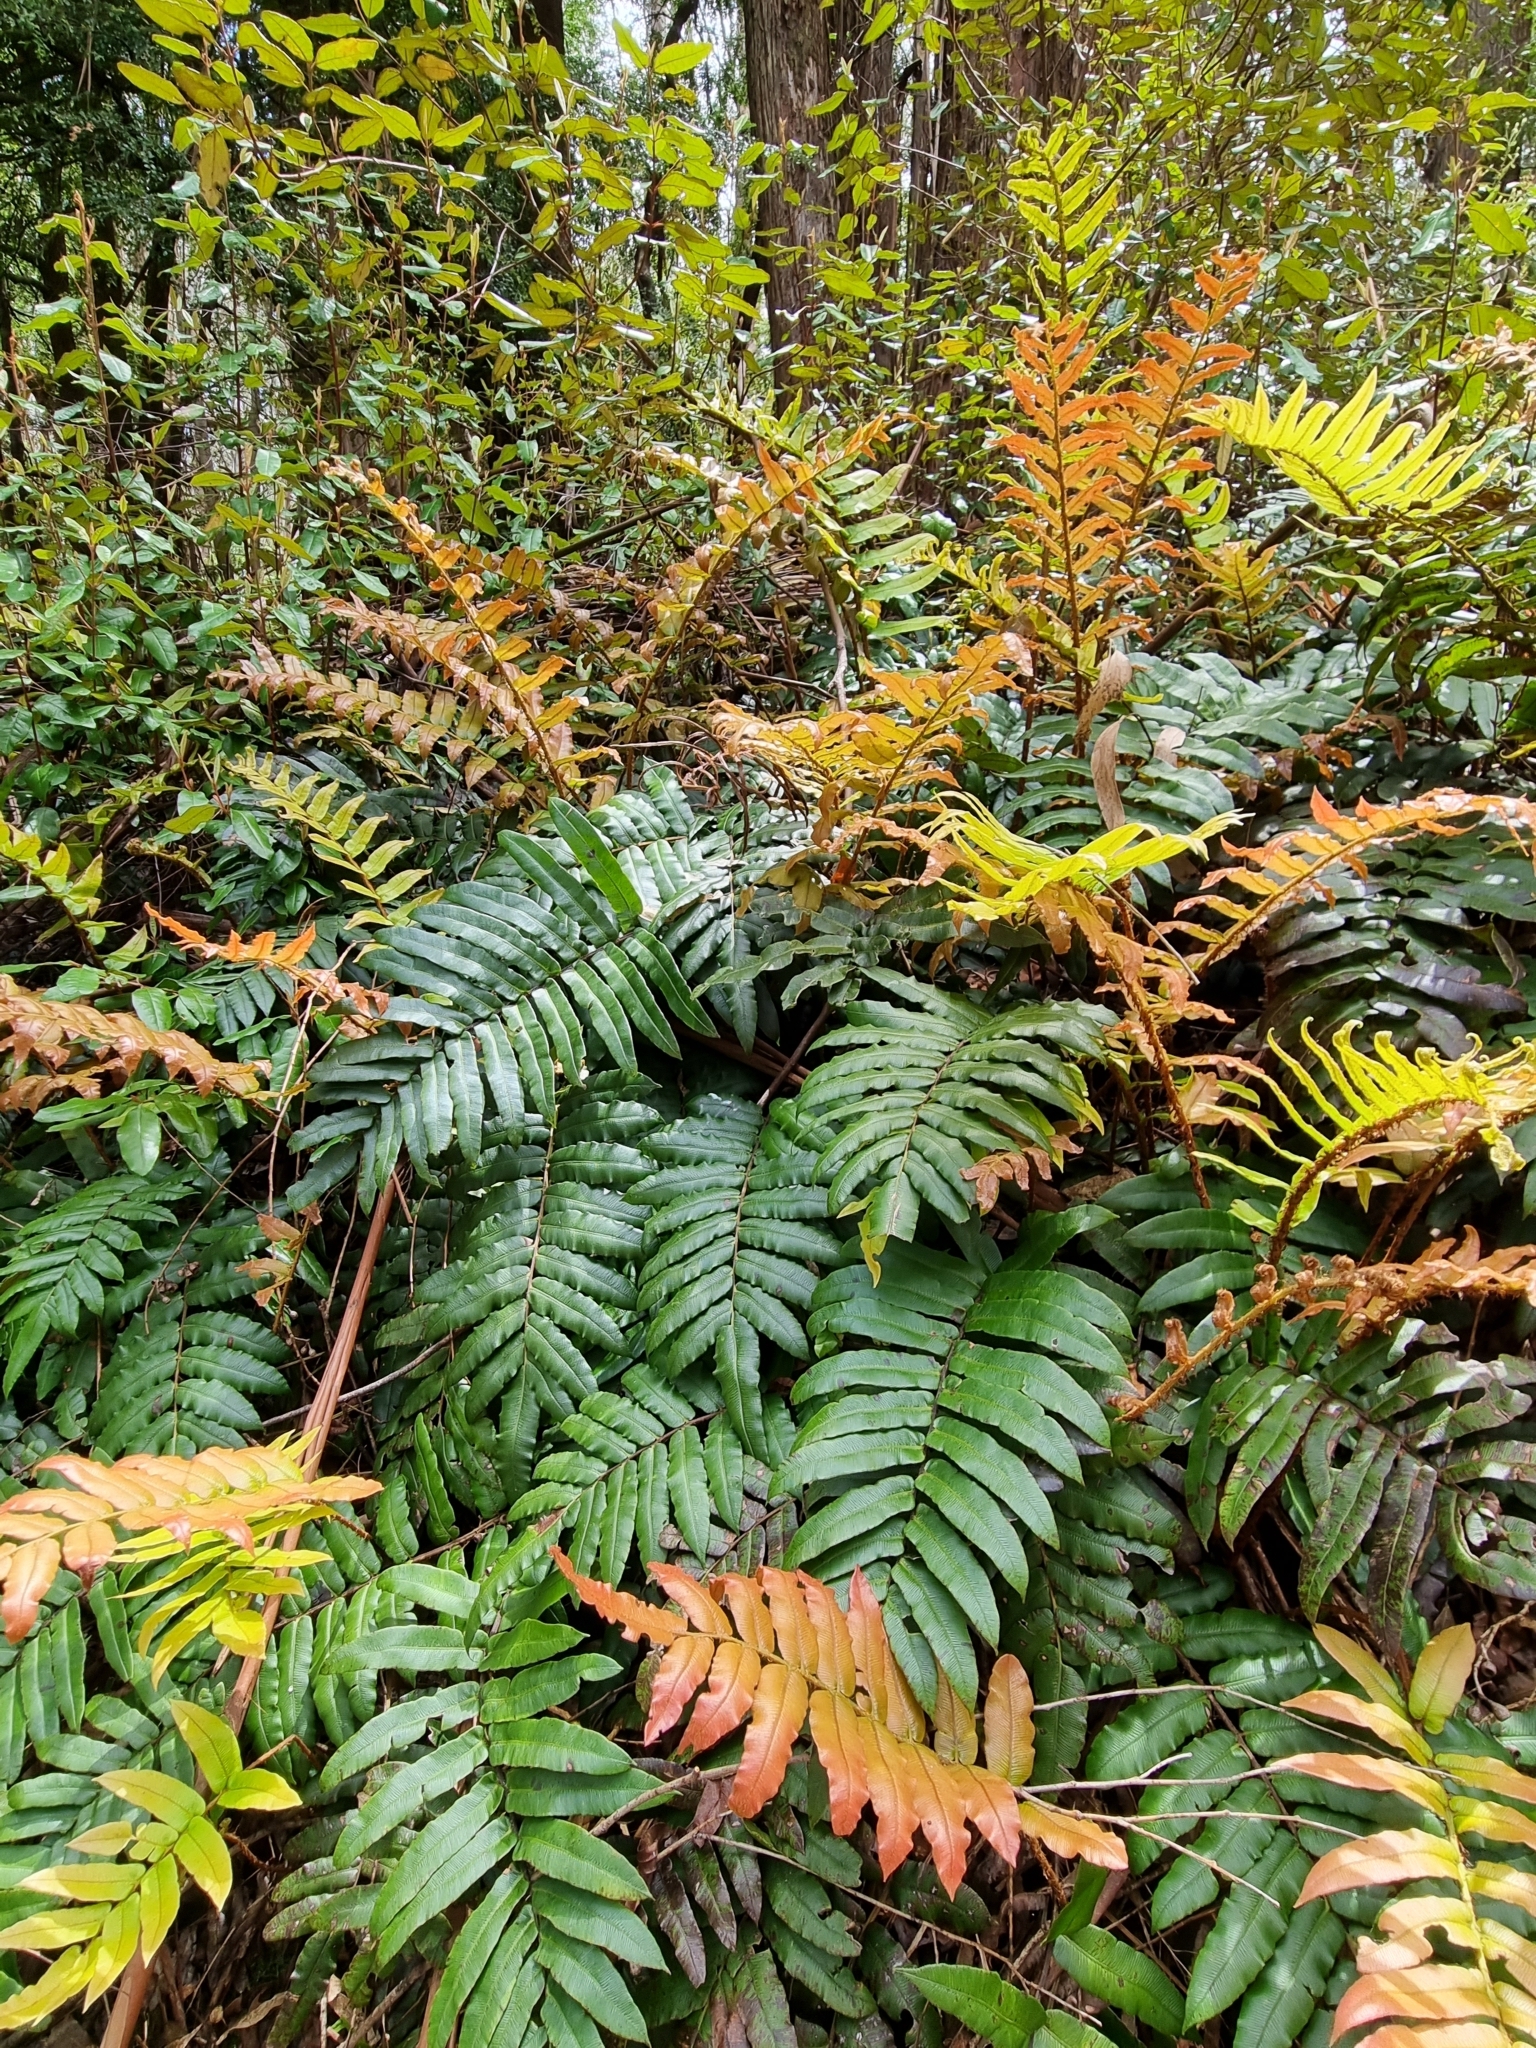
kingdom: Plantae
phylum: Tracheophyta
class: Polypodiopsida
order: Polypodiales
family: Blechnaceae
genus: Parablechnum
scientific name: Parablechnum wattsii
